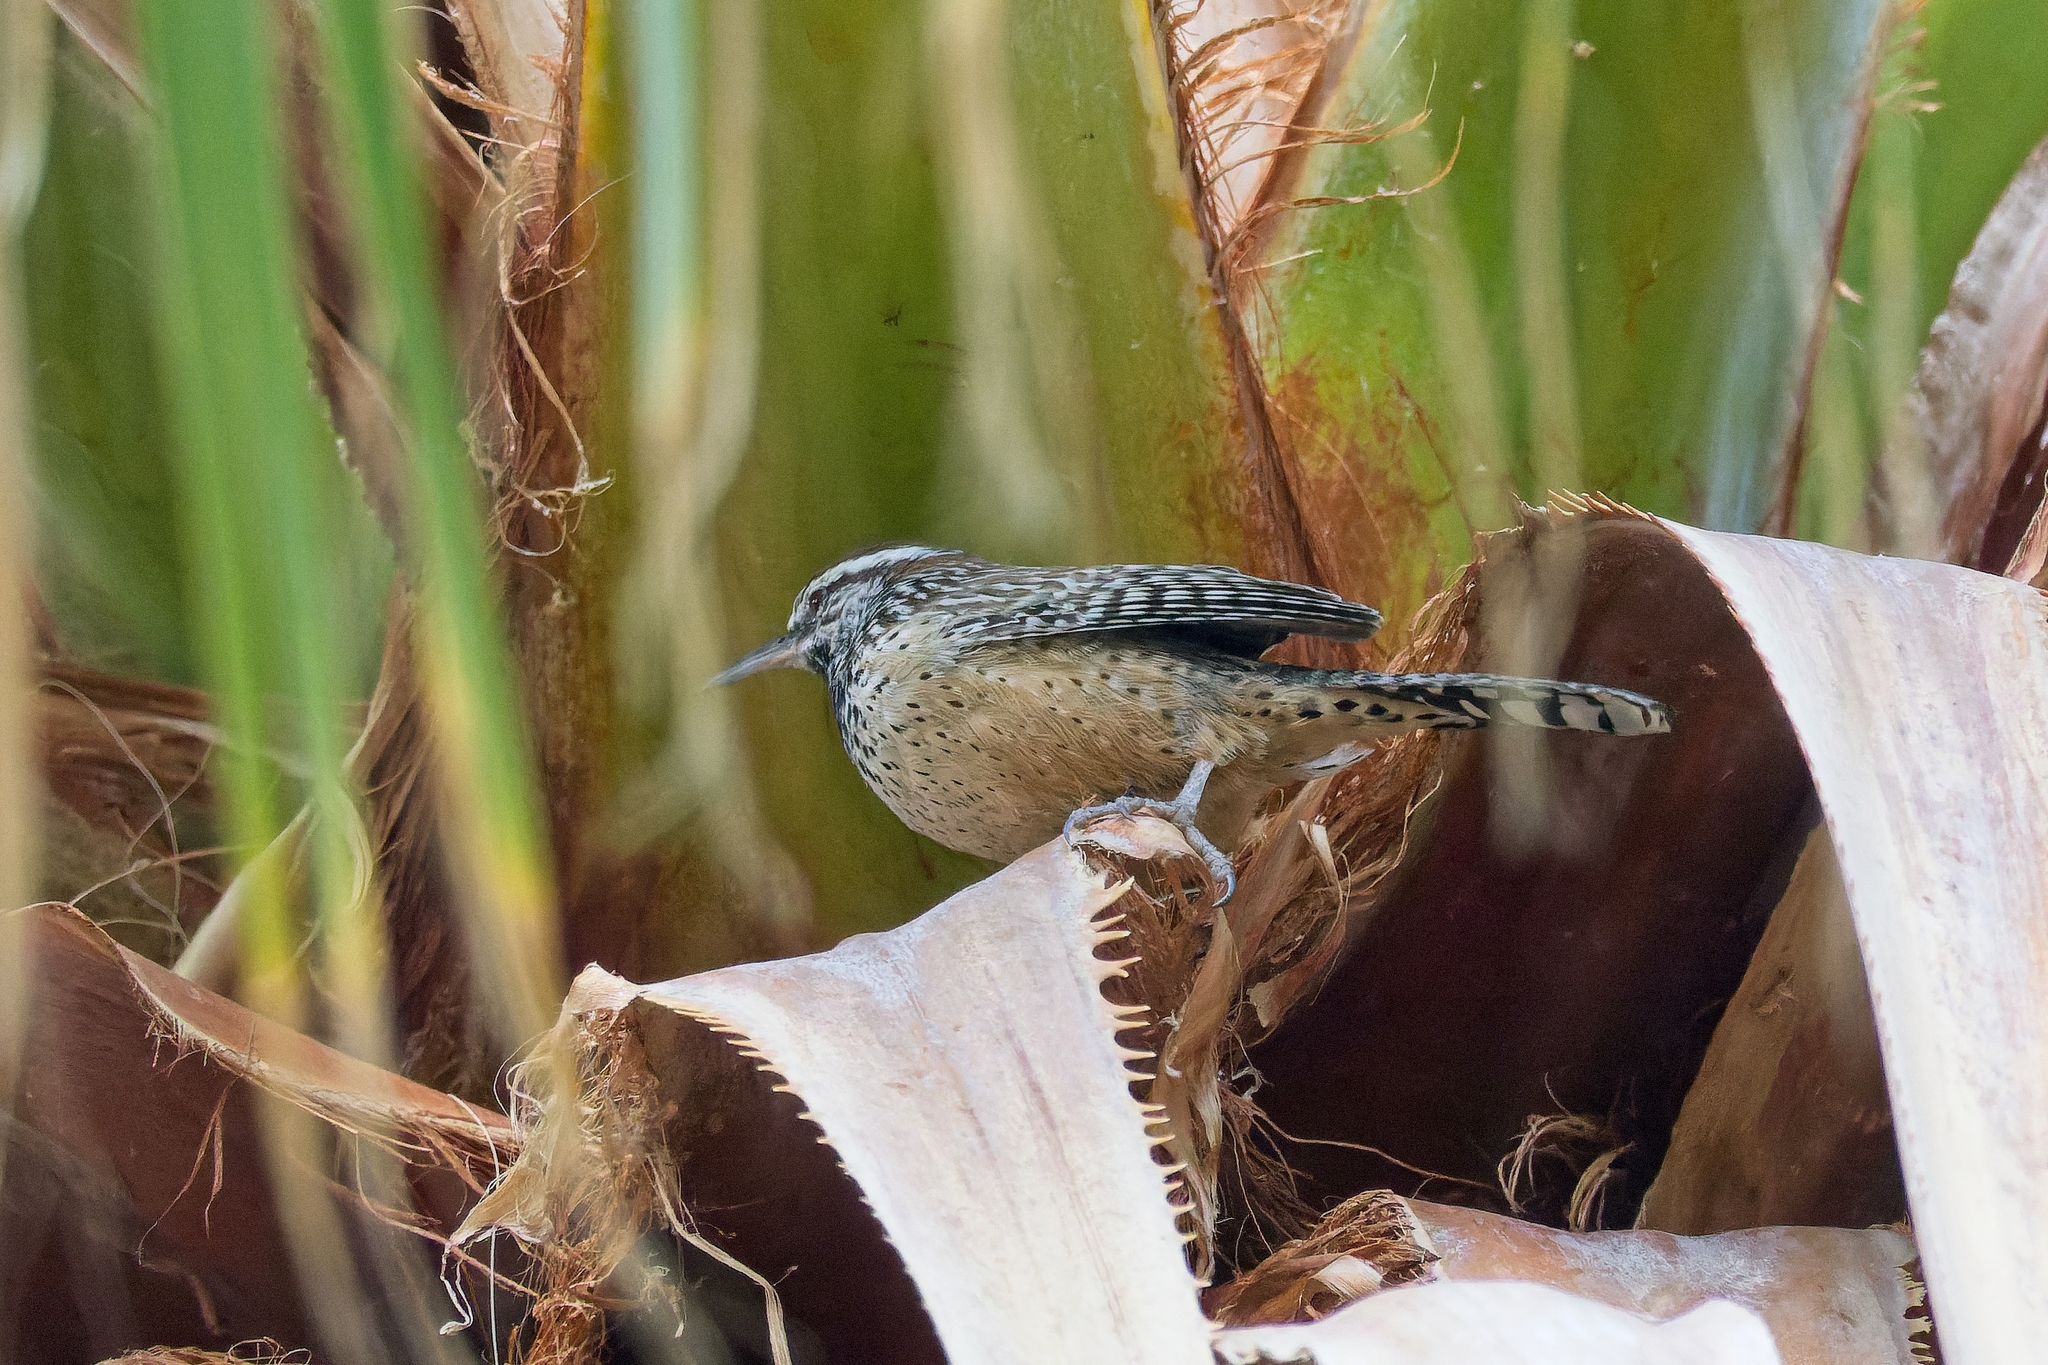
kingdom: Animalia
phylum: Chordata
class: Aves
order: Passeriformes
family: Troglodytidae
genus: Campylorhynchus
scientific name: Campylorhynchus brunneicapillus
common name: Cactus wren
